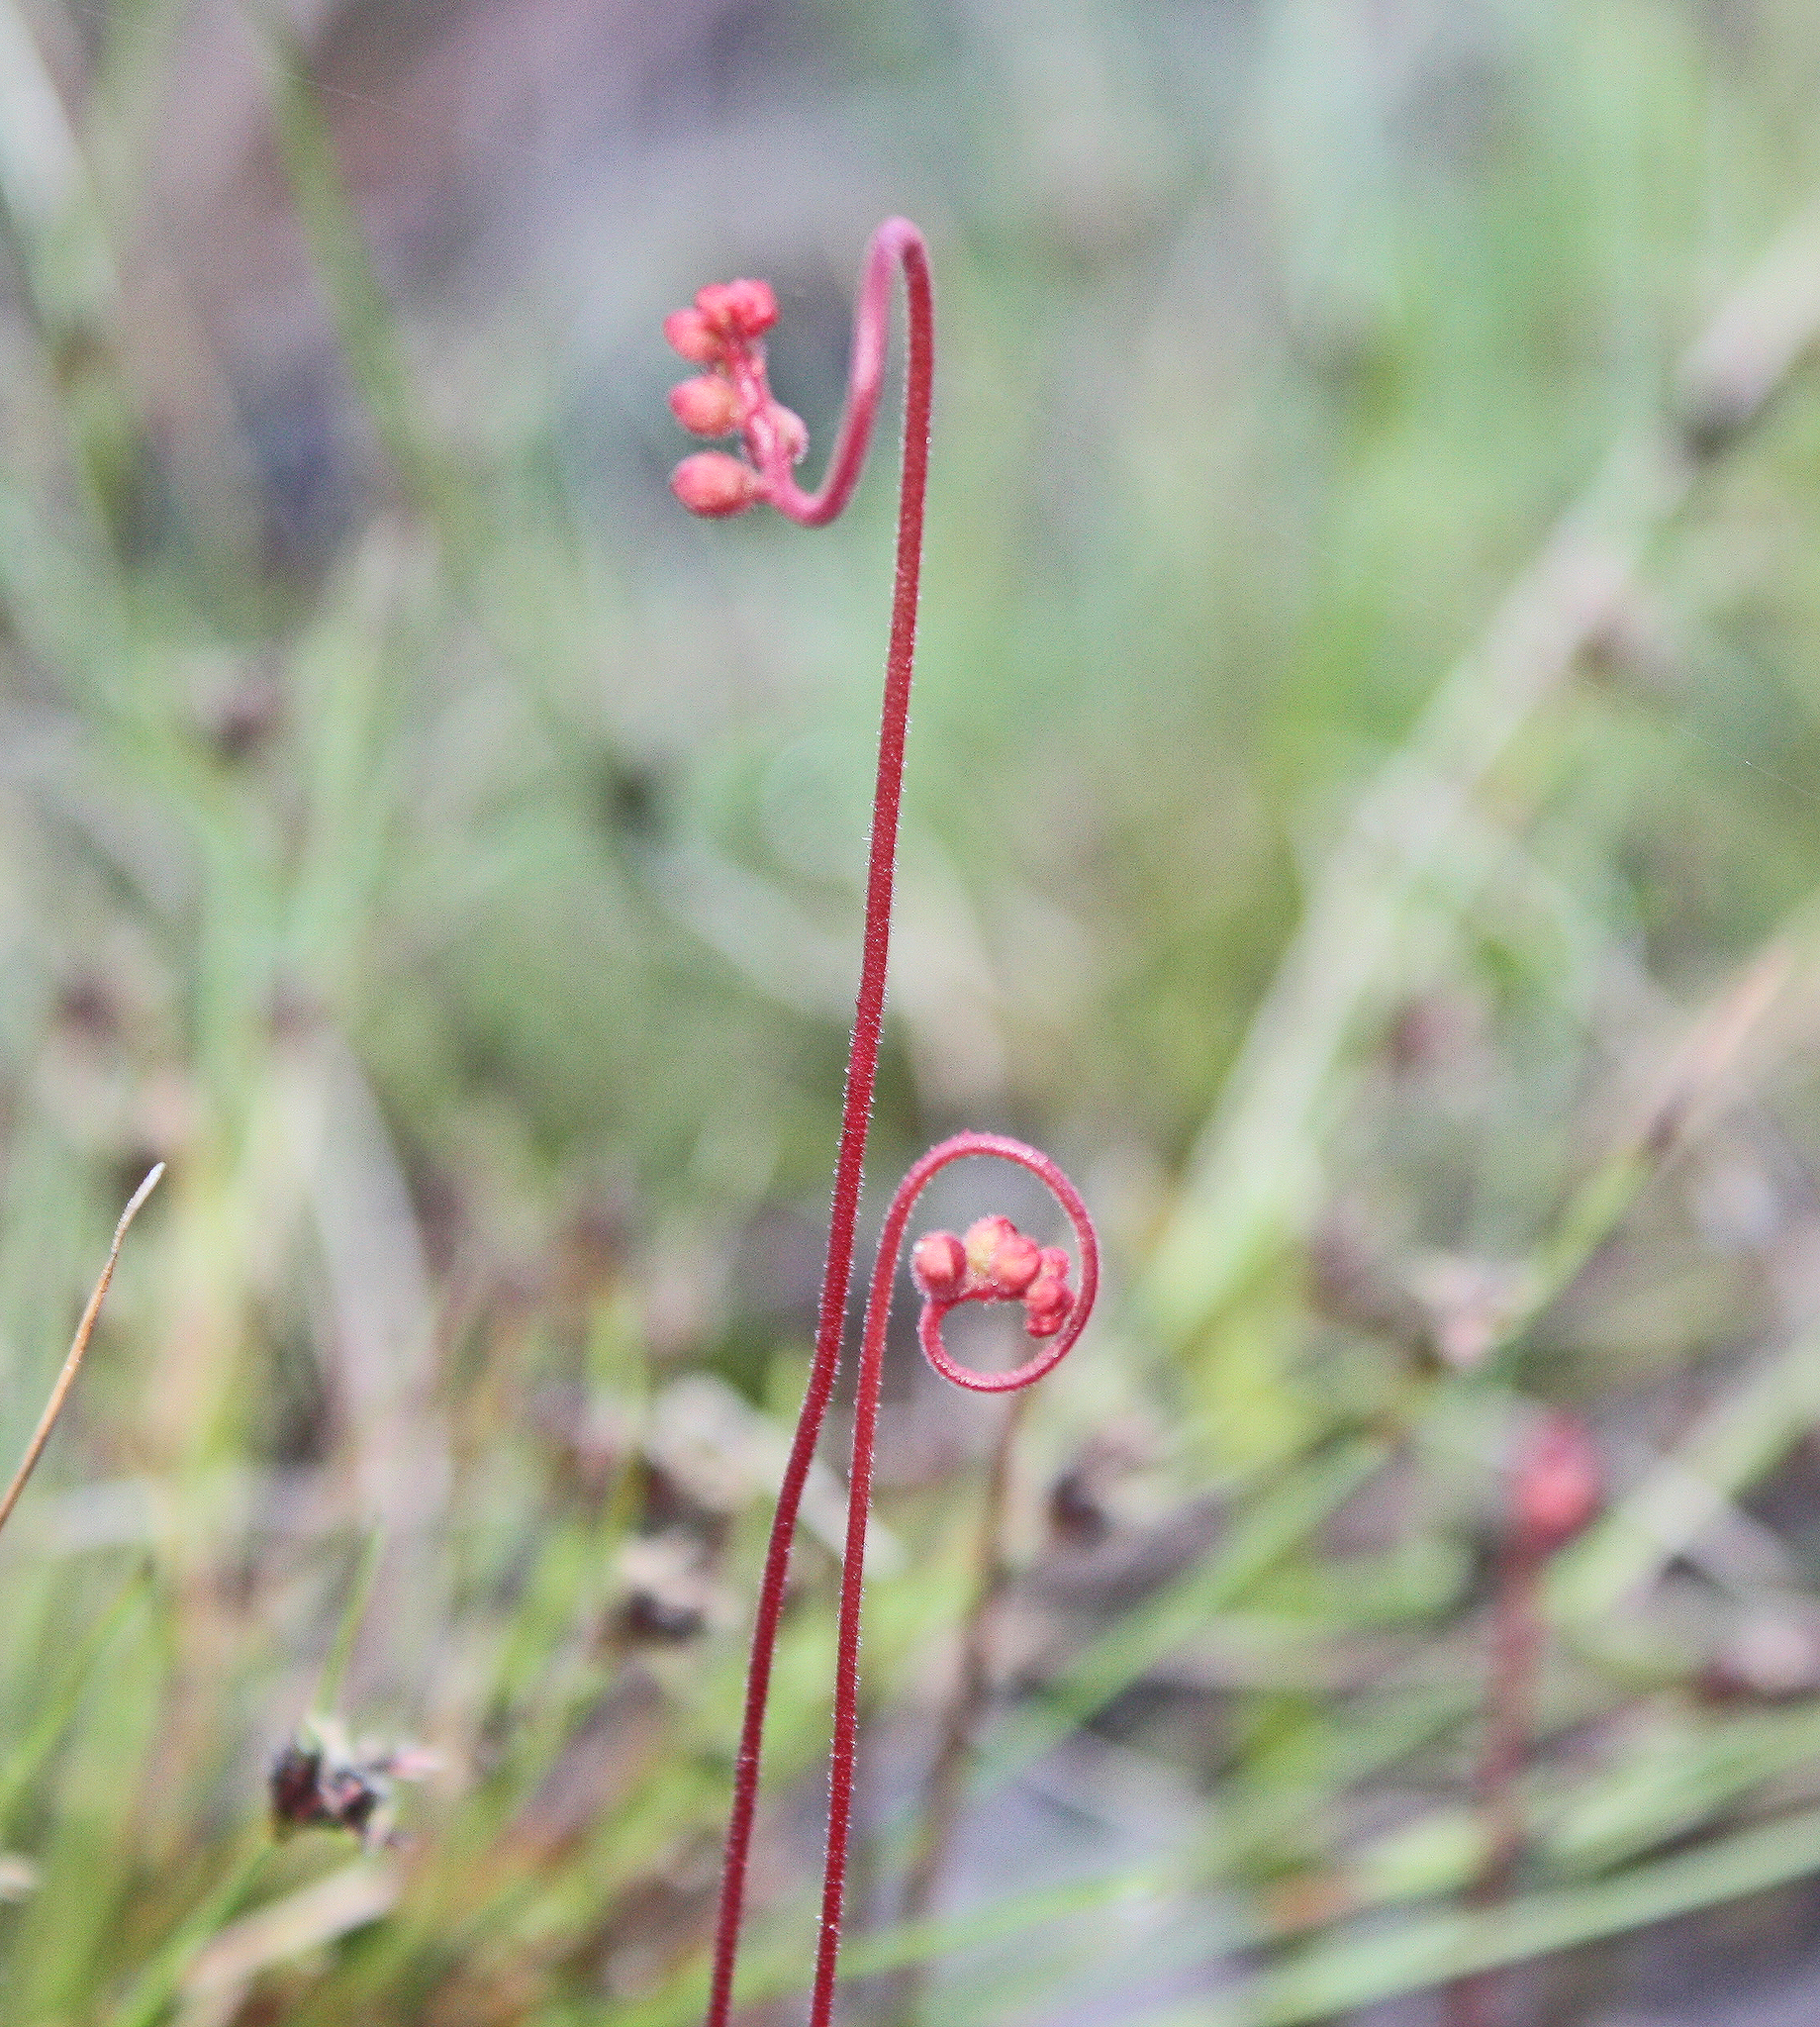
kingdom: Plantae
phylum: Tracheophyta
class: Magnoliopsida
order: Caryophyllales
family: Droseraceae
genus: Drosera
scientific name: Drosera spatulata
